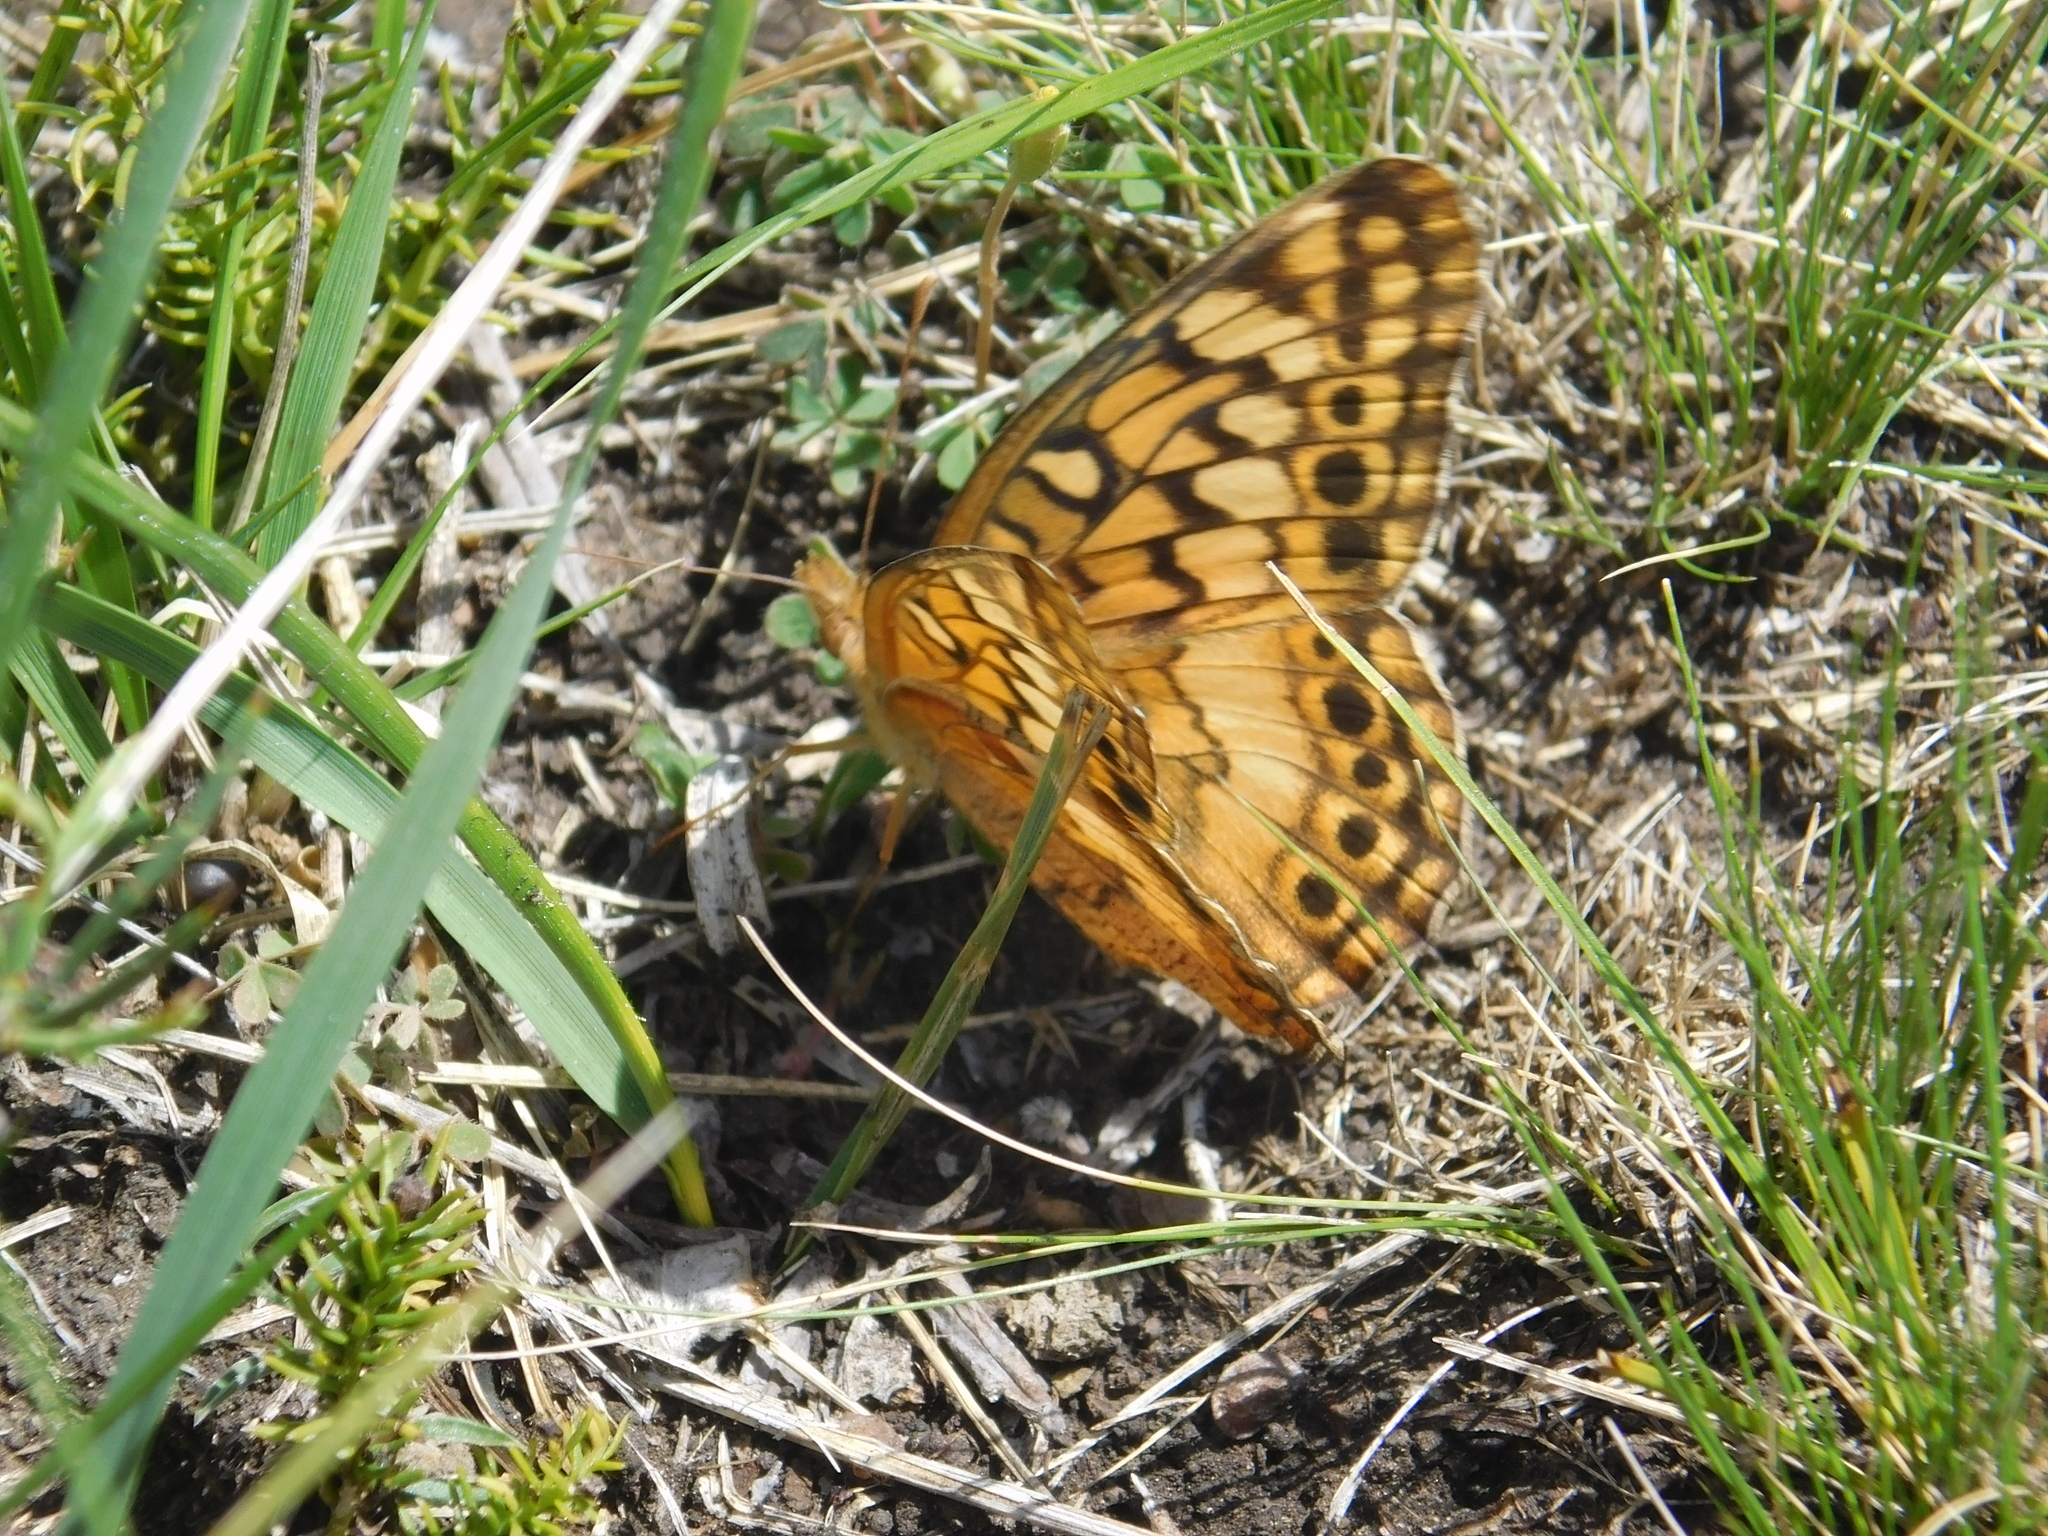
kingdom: Animalia
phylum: Arthropoda
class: Insecta
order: Lepidoptera
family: Nymphalidae
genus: Euptoieta
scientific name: Euptoieta hortensia
